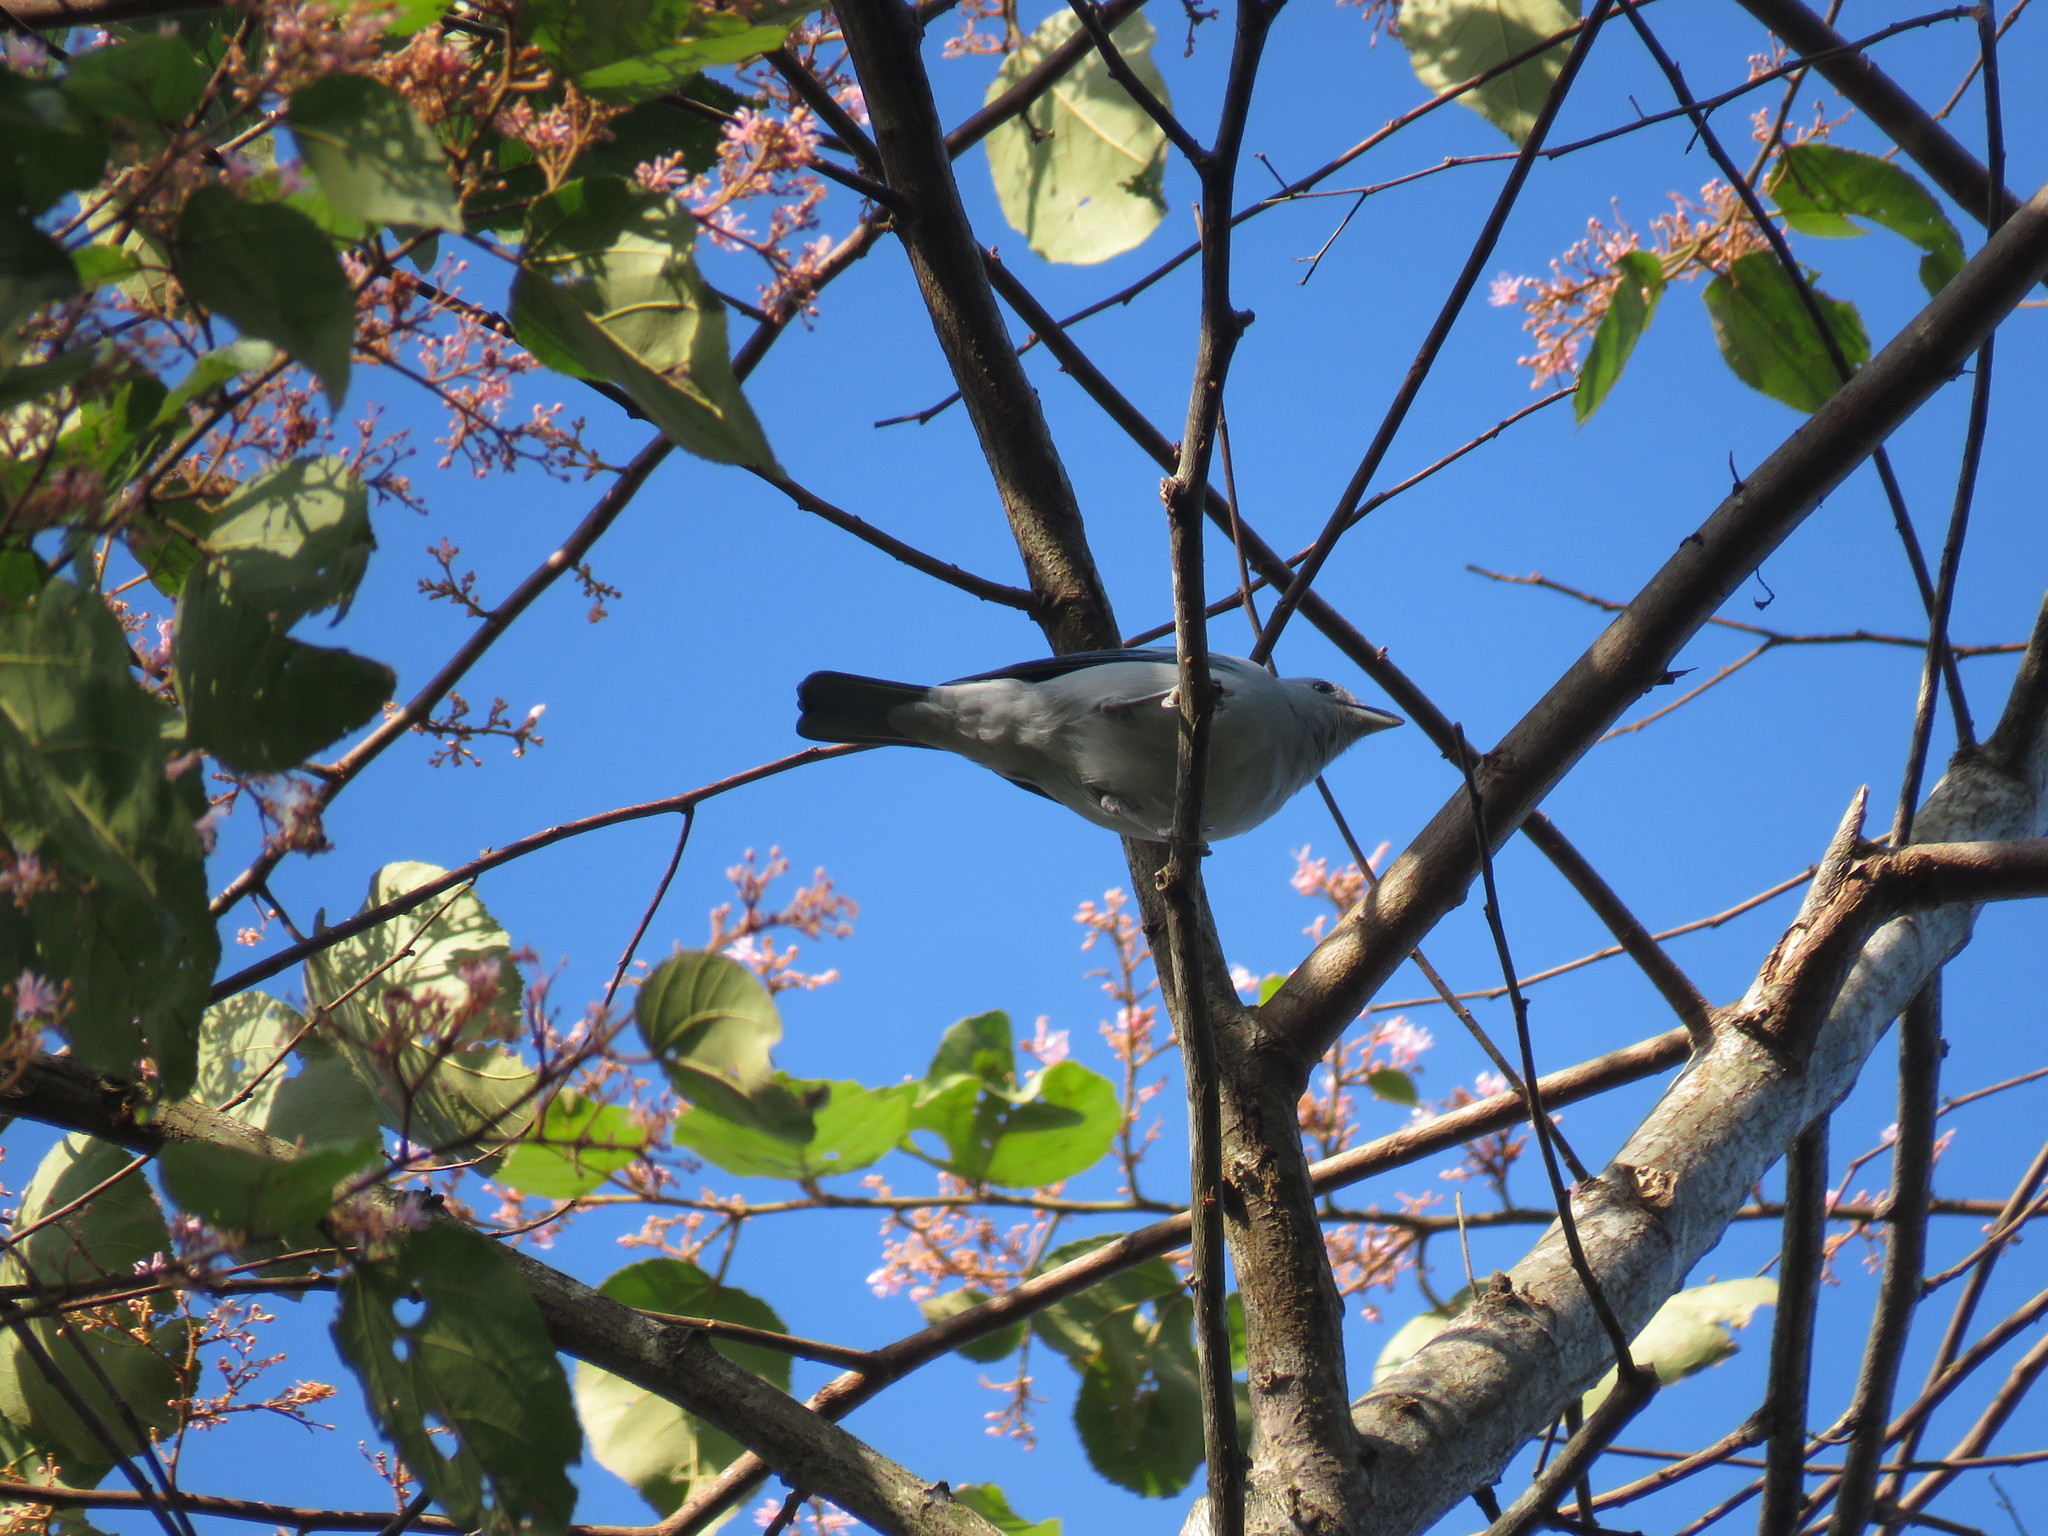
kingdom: Animalia
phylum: Chordata
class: Aves
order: Passeriformes
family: Thraupidae
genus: Thraupis
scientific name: Thraupis episcopus
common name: Blue-grey tanager
